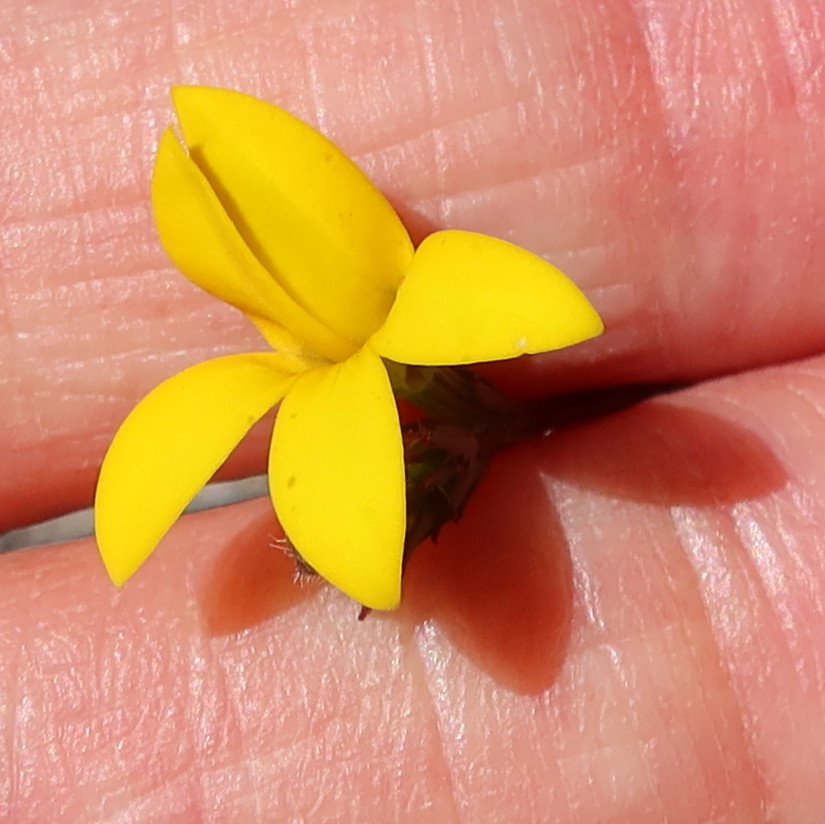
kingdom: Plantae
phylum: Tracheophyta
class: Magnoliopsida
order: Asterales
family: Campanulaceae
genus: Monopsis
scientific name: Monopsis lutea
